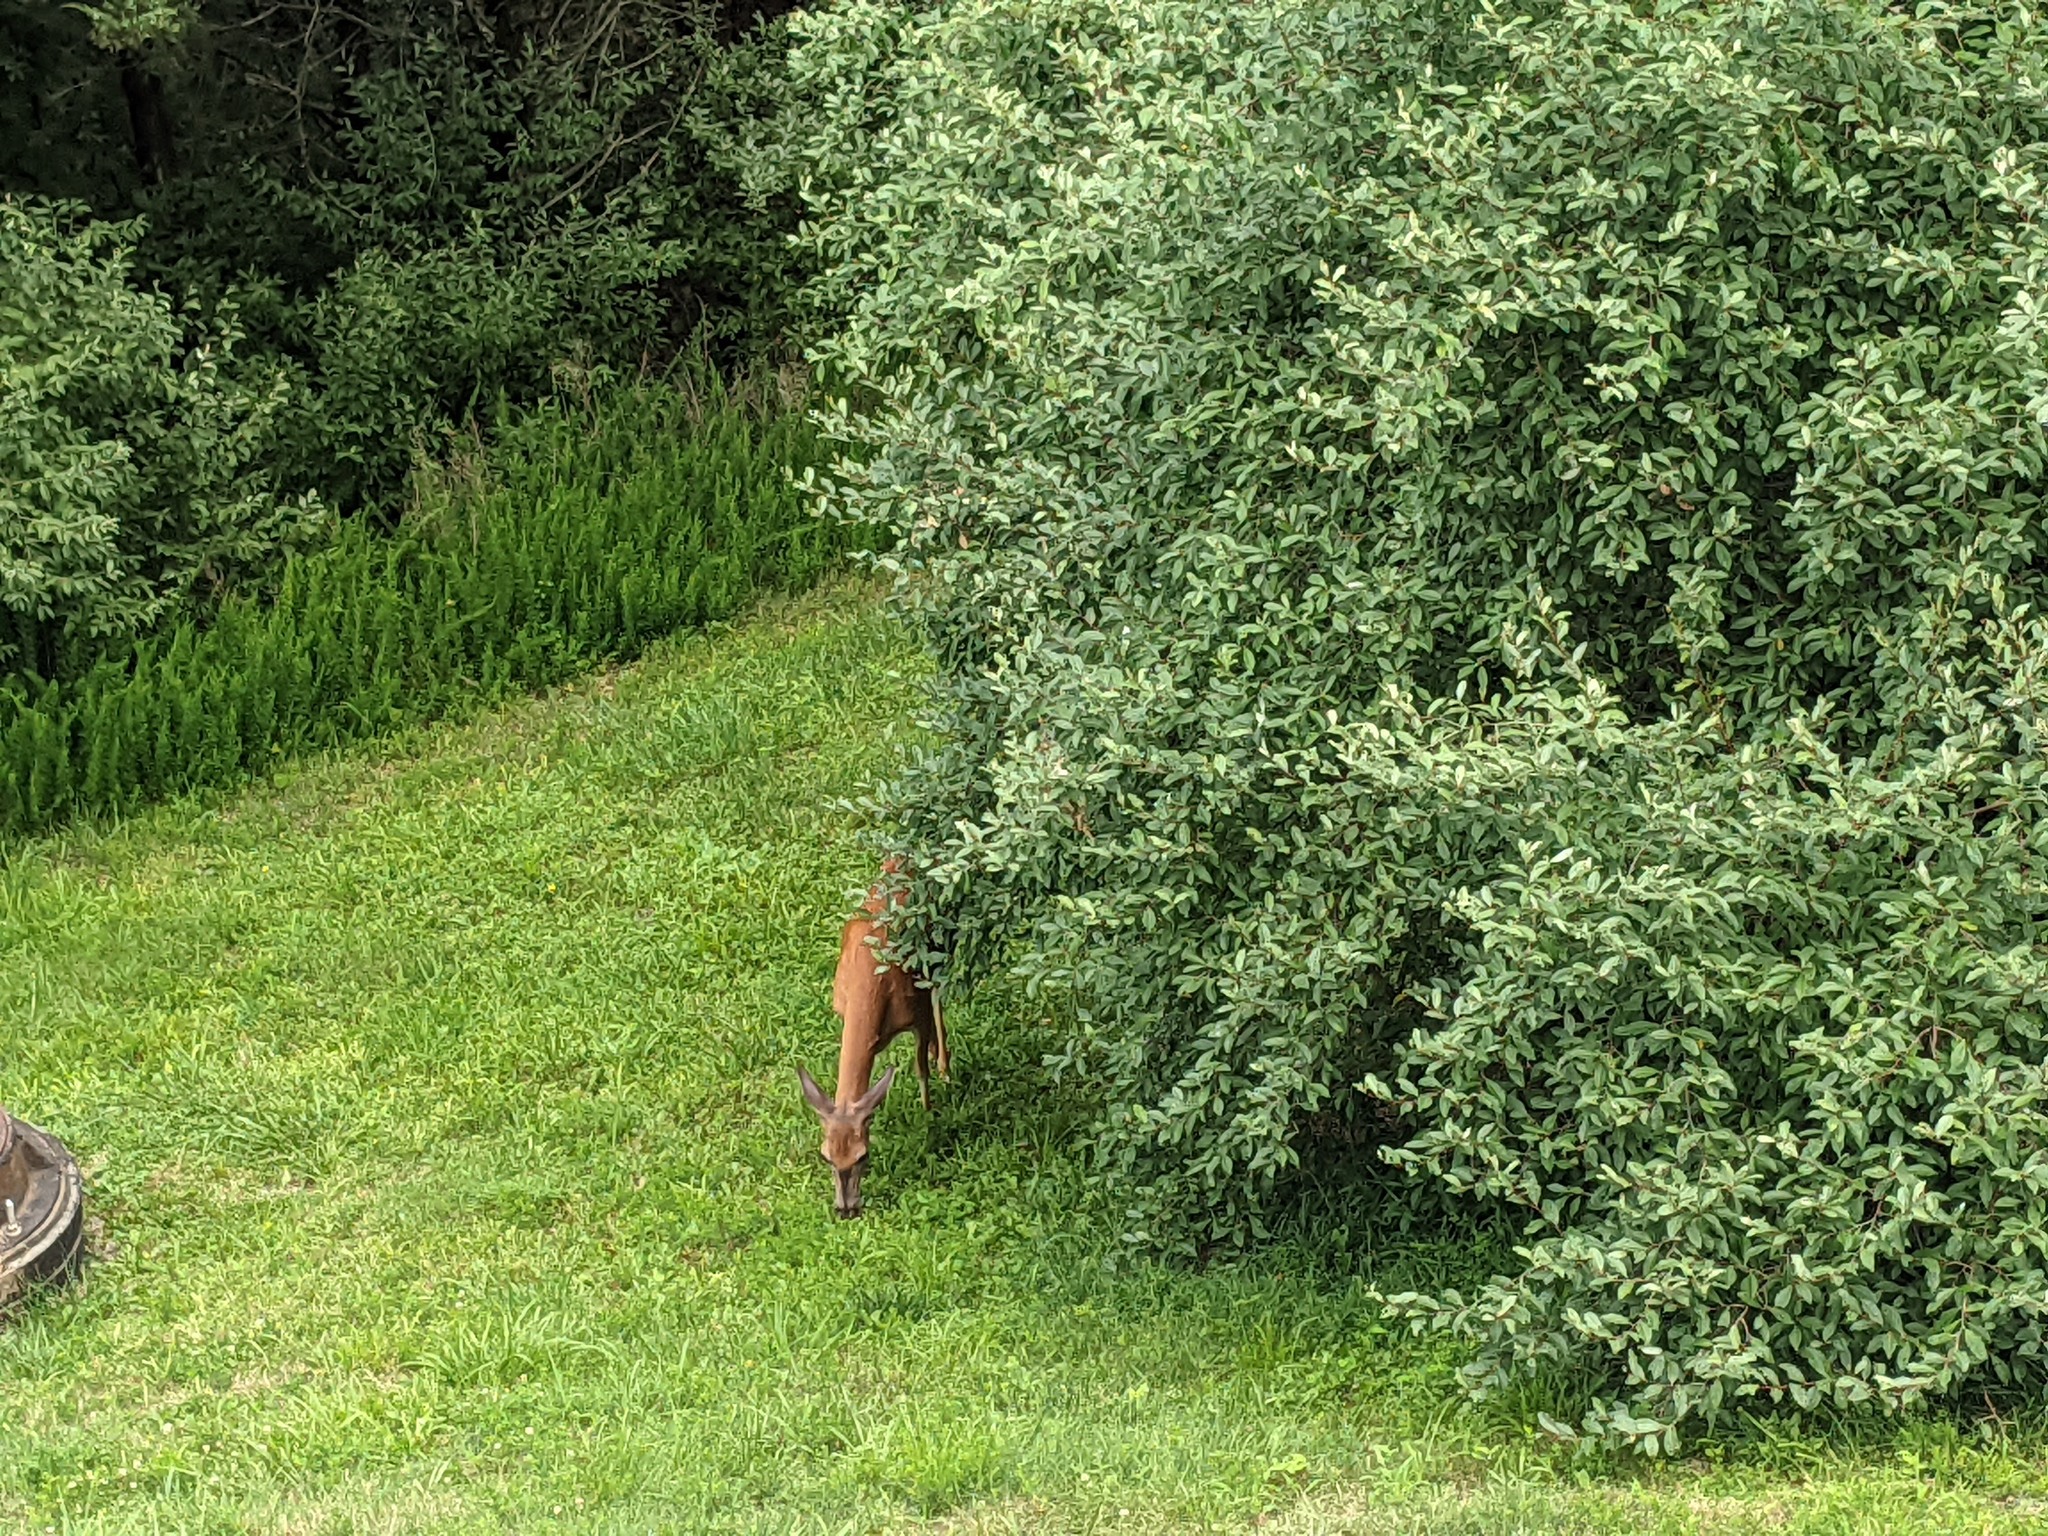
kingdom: Animalia
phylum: Chordata
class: Mammalia
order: Artiodactyla
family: Cervidae
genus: Odocoileus
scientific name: Odocoileus virginianus
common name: White-tailed deer
